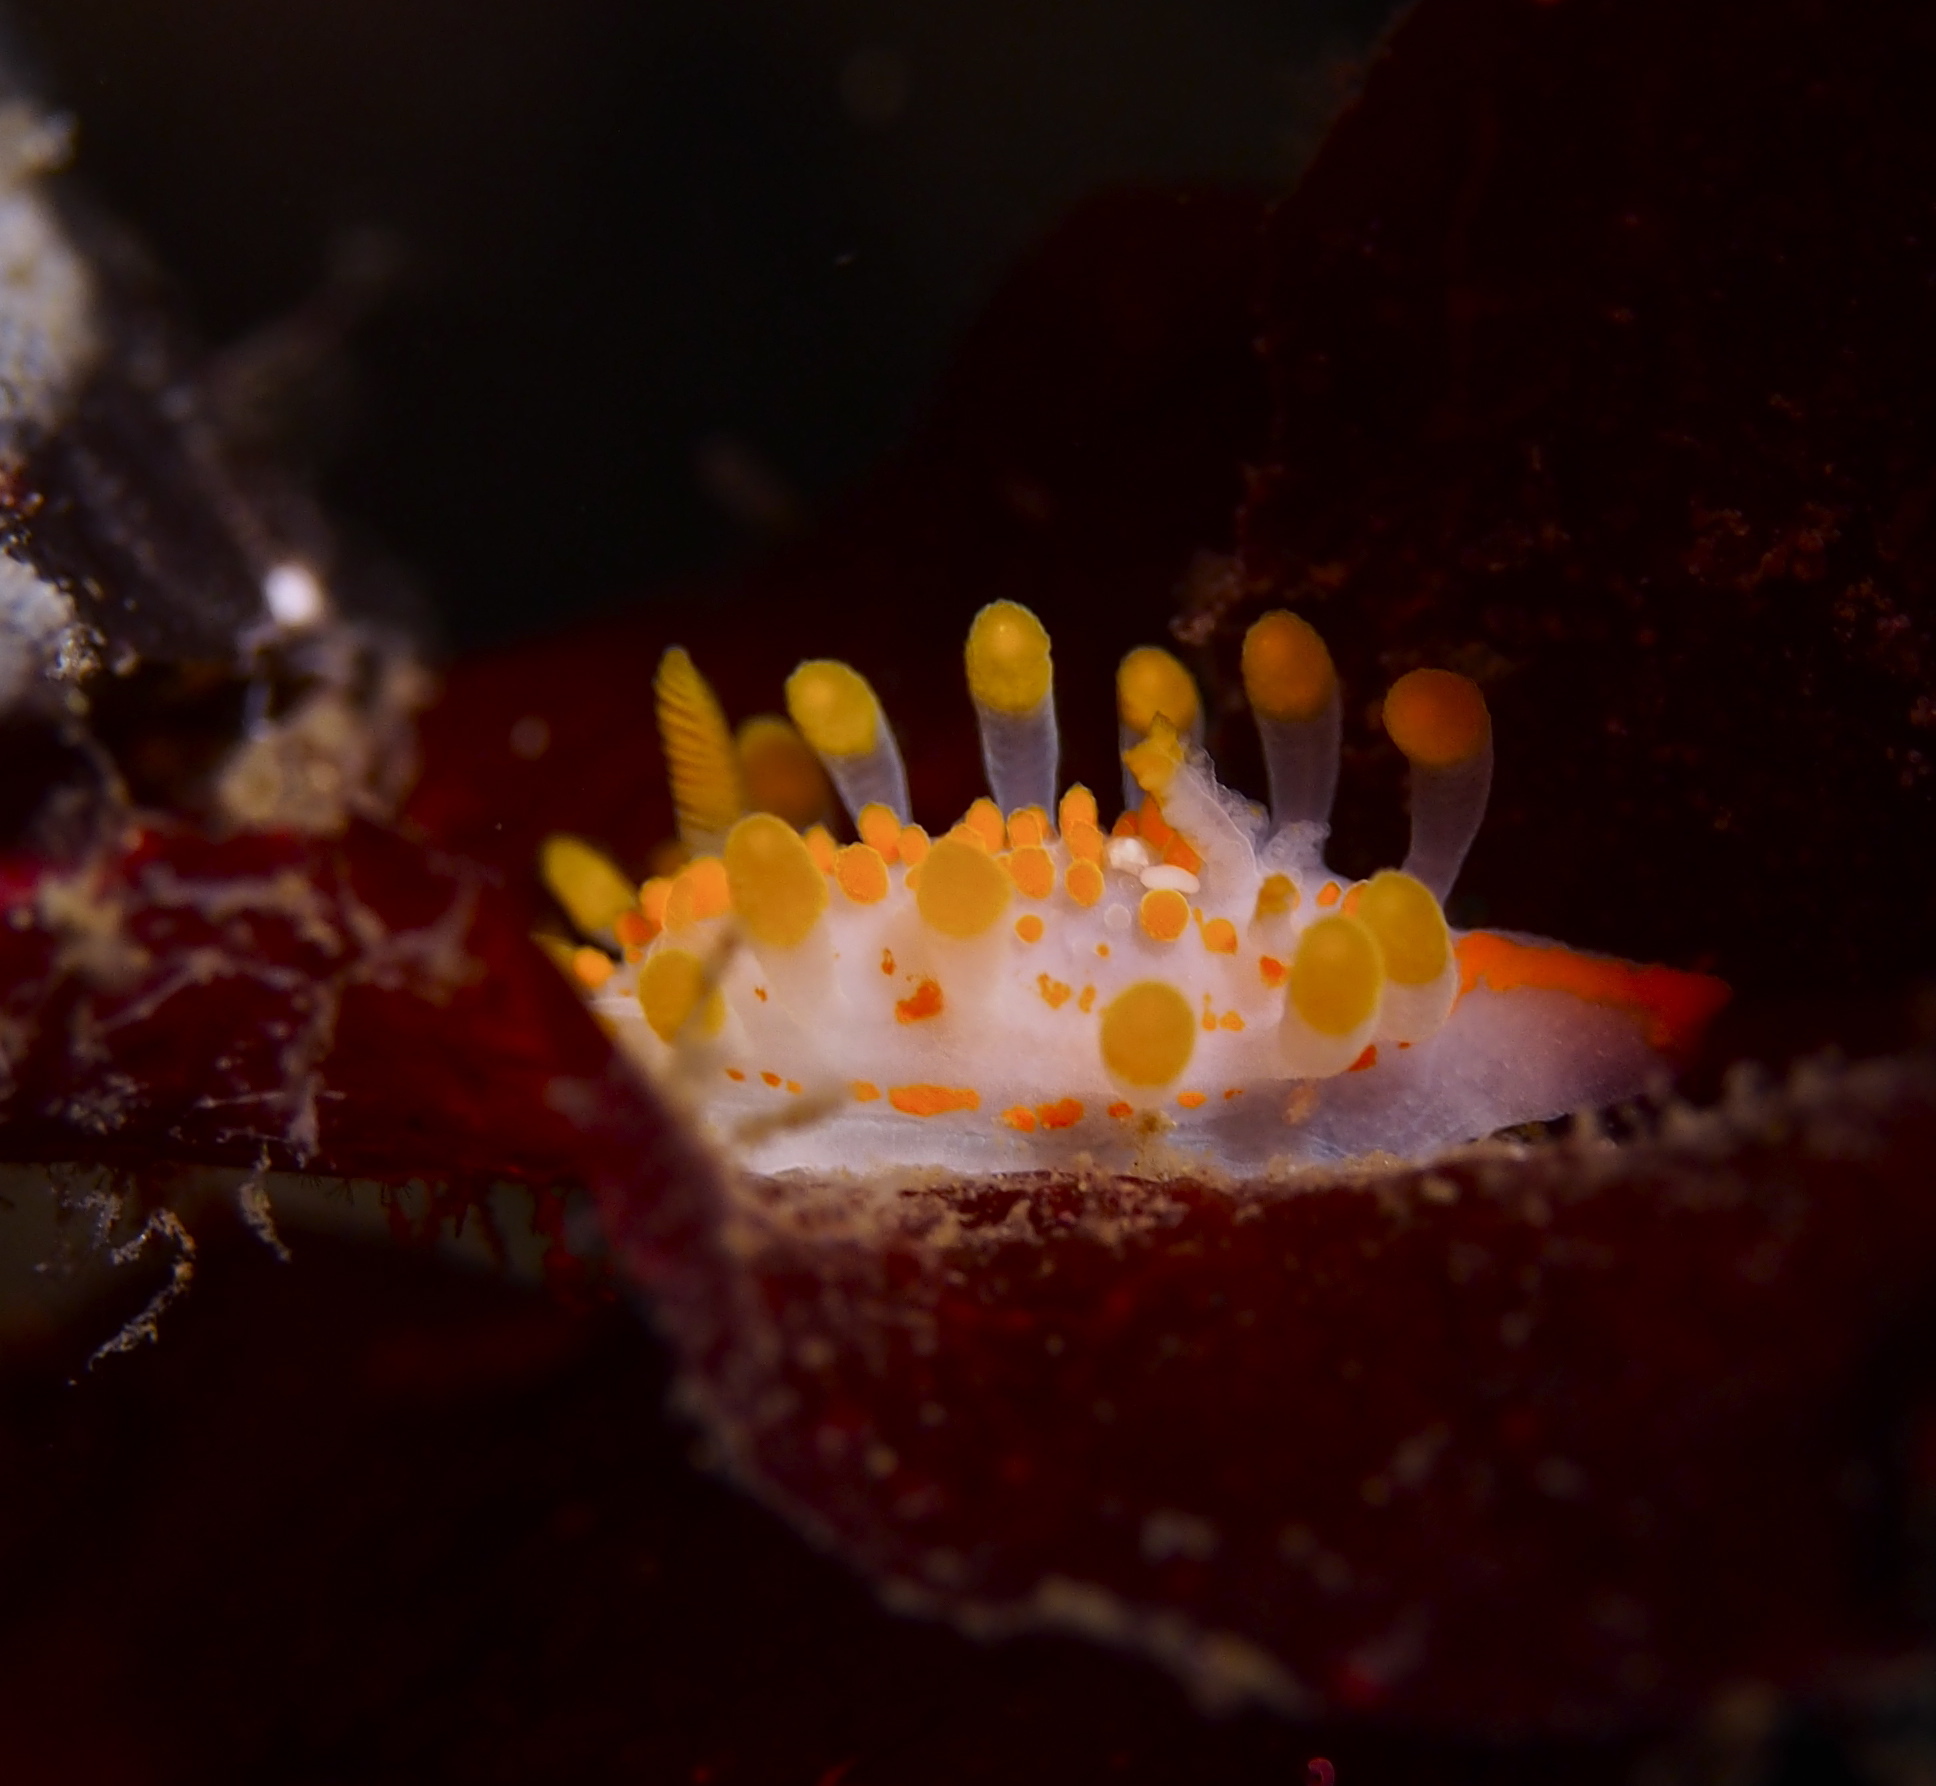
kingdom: Animalia
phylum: Mollusca
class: Gastropoda
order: Nudibranchia
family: Polyceridae
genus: Limacia
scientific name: Limacia clavigera
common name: Orange-clubbed sea slug
